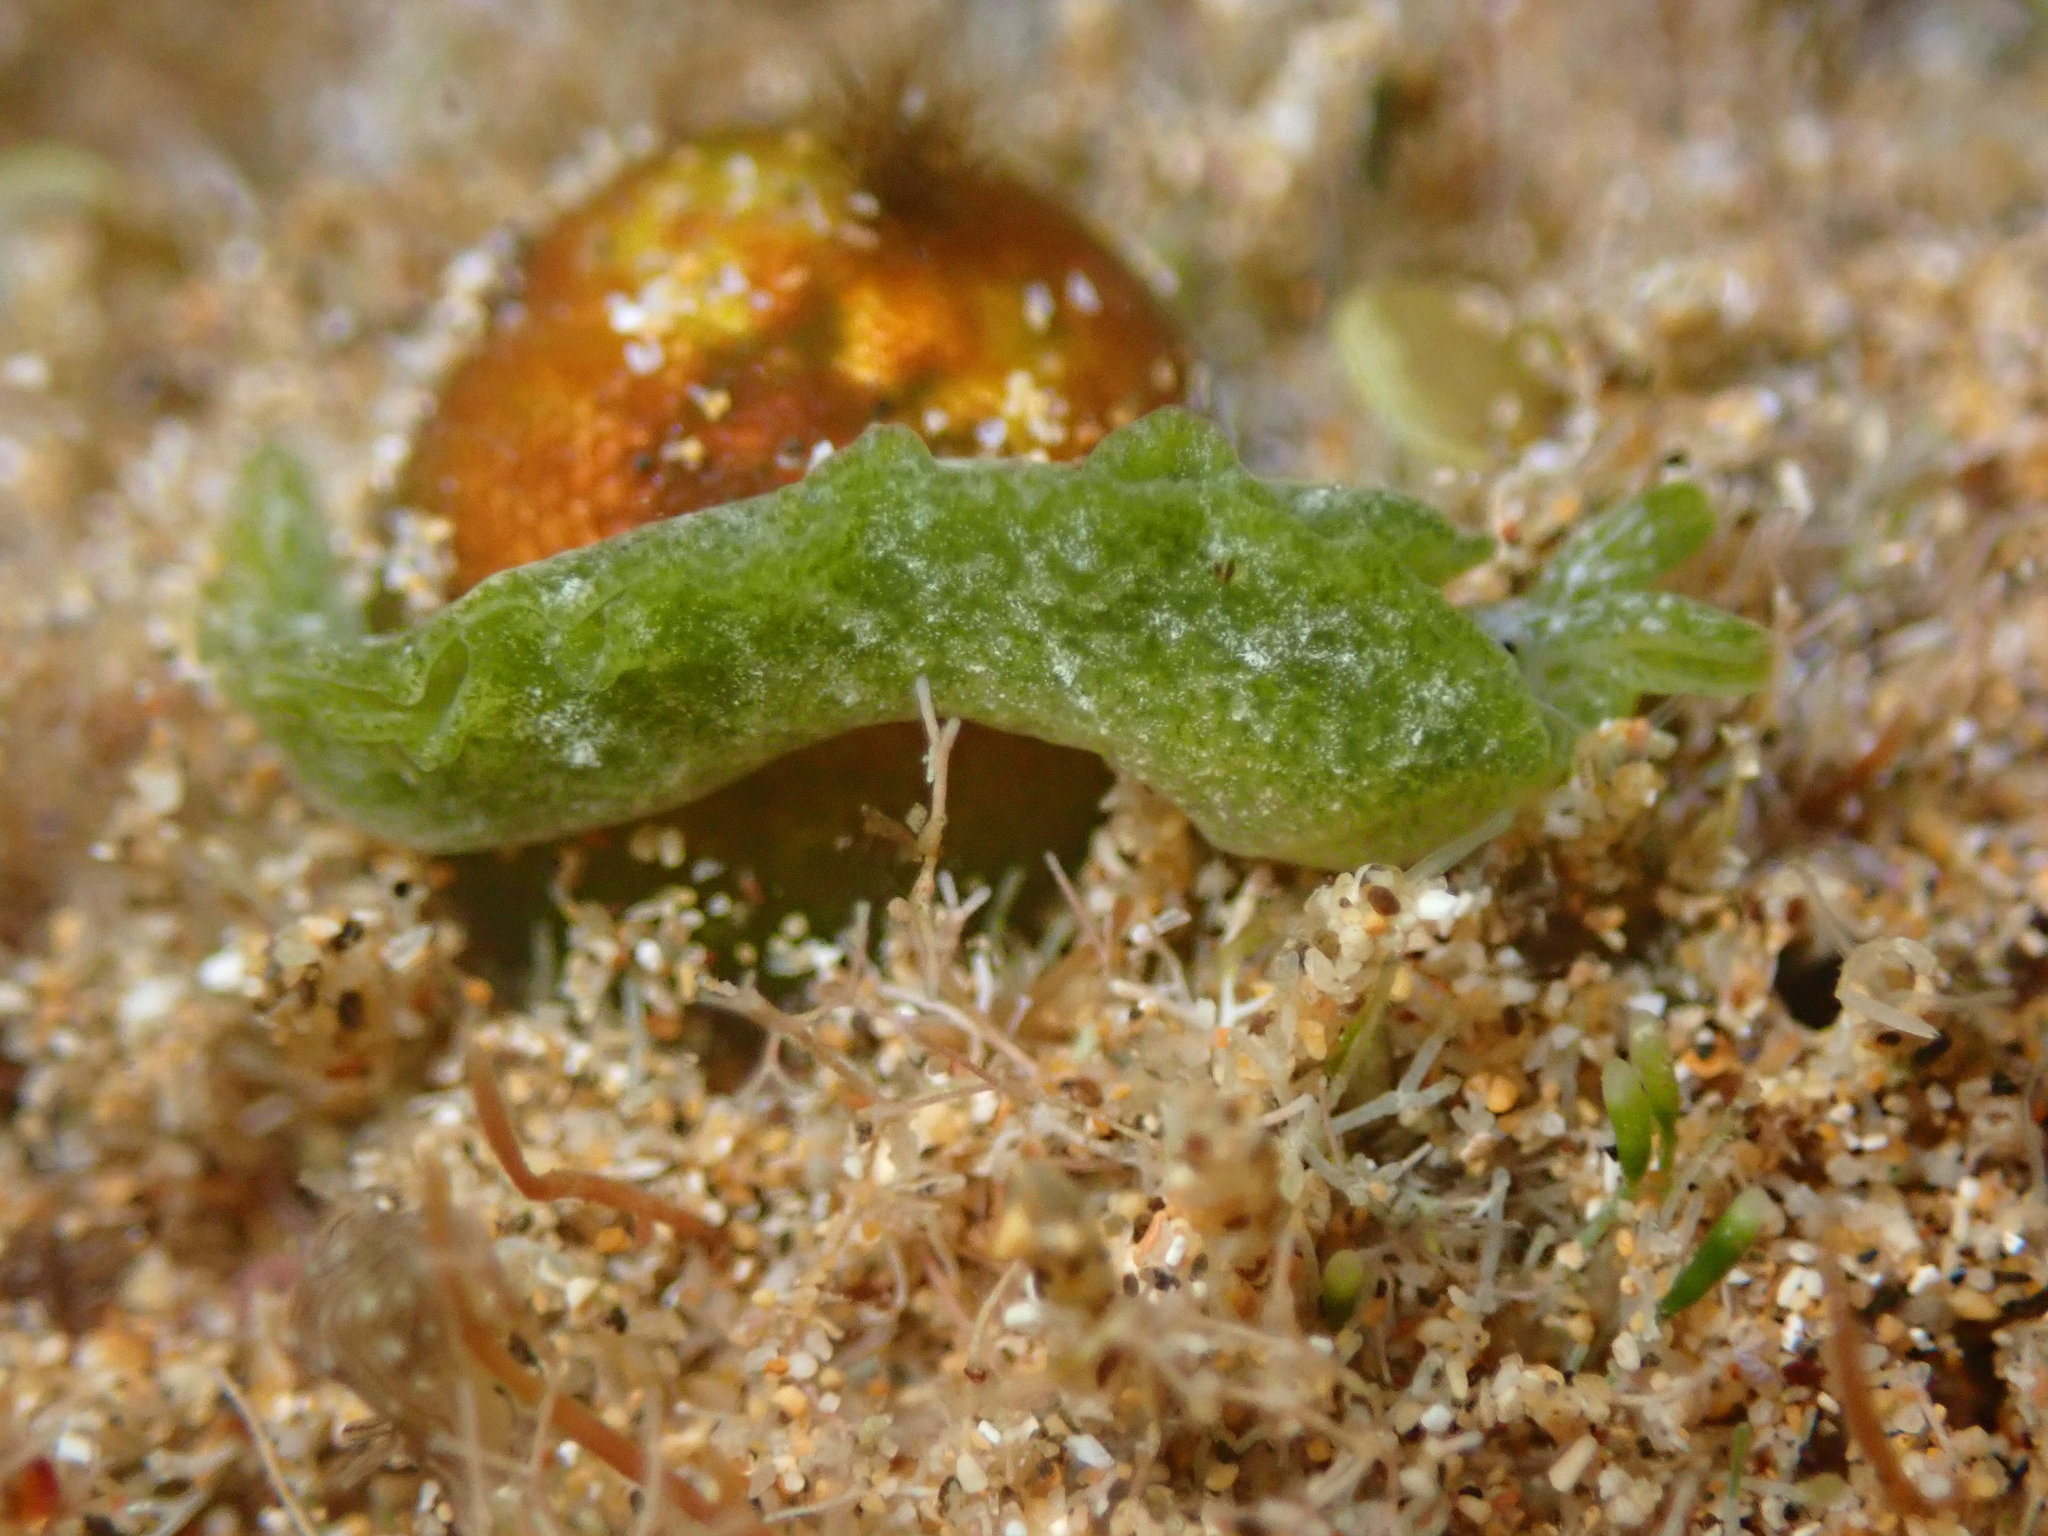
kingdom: Animalia
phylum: Mollusca
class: Gastropoda
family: Plakobranchidae
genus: Elysia
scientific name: Elysia nealae
